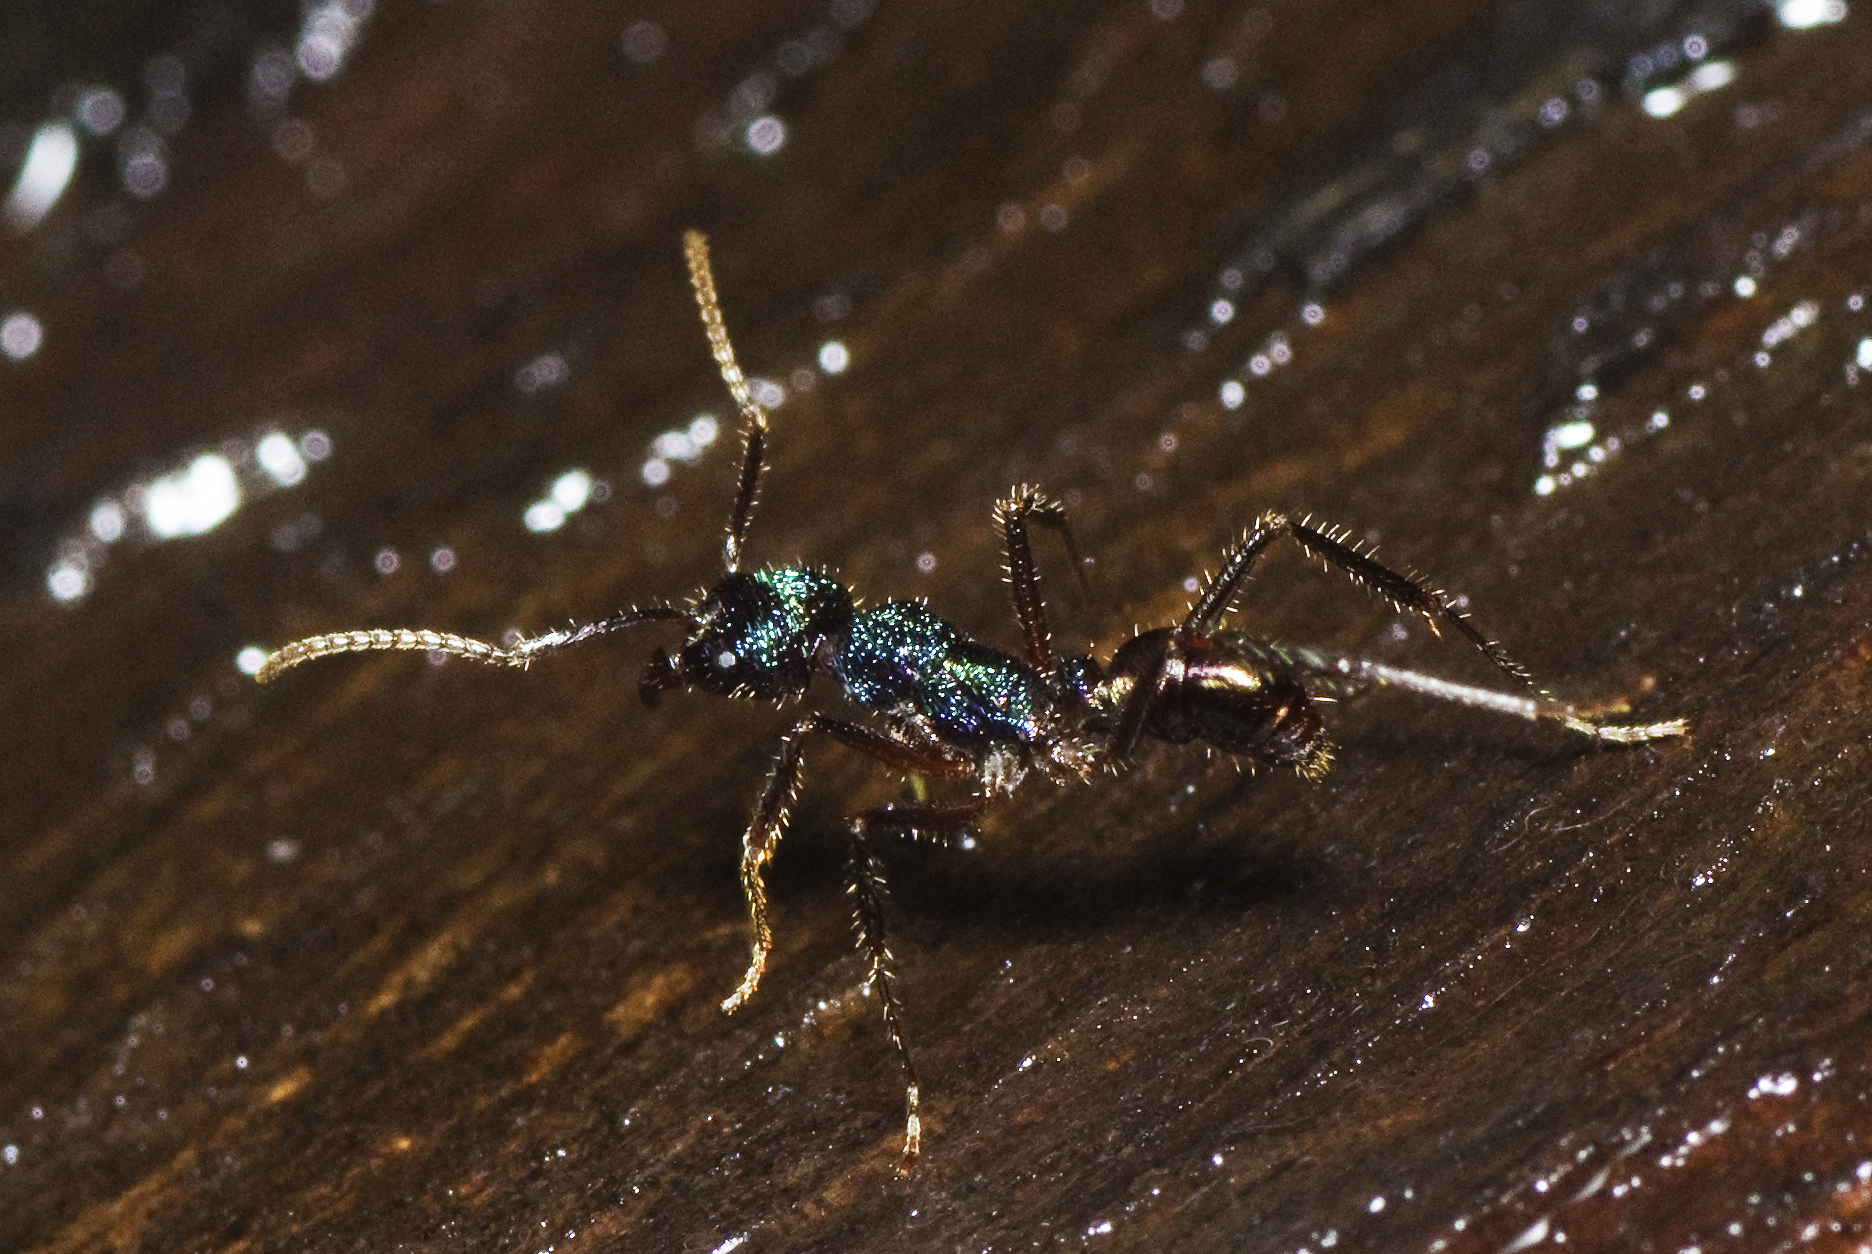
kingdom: Animalia
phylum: Arthropoda
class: Insecta
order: Hymenoptera
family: Formicidae
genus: Rhytidoponera
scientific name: Rhytidoponera purpurea
